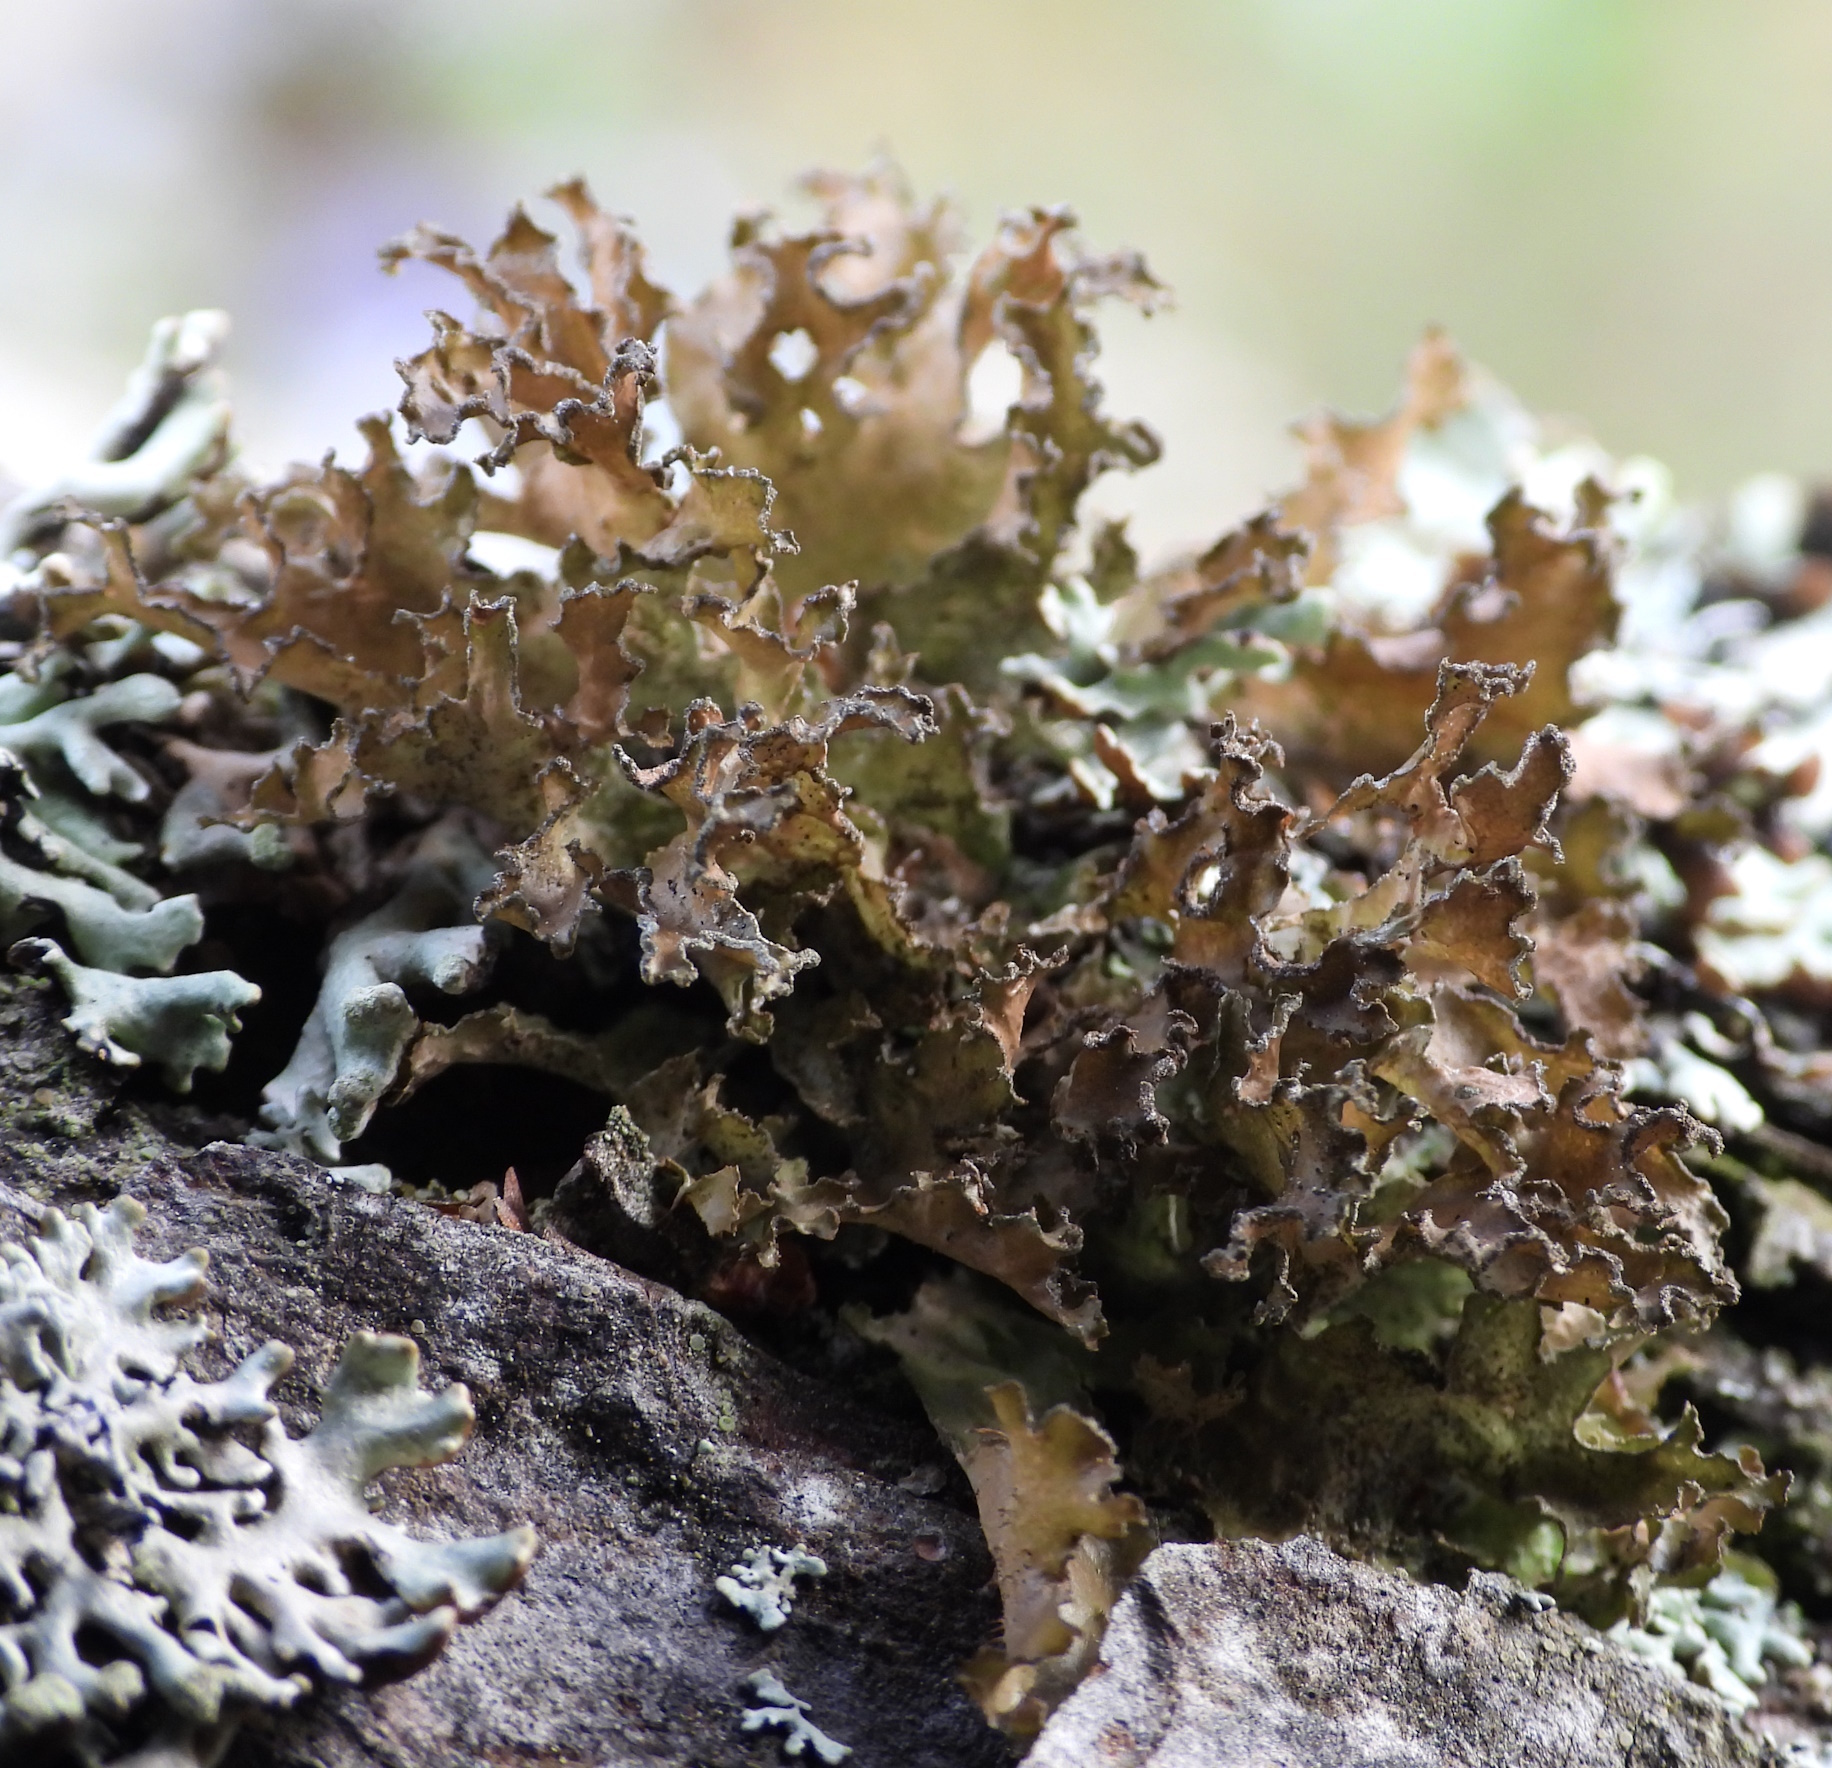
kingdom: Fungi
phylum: Ascomycota
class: Lecanoromycetes
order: Lecanorales
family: Parmeliaceae
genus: Nephromopsis
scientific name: Nephromopsis chlorophylla
